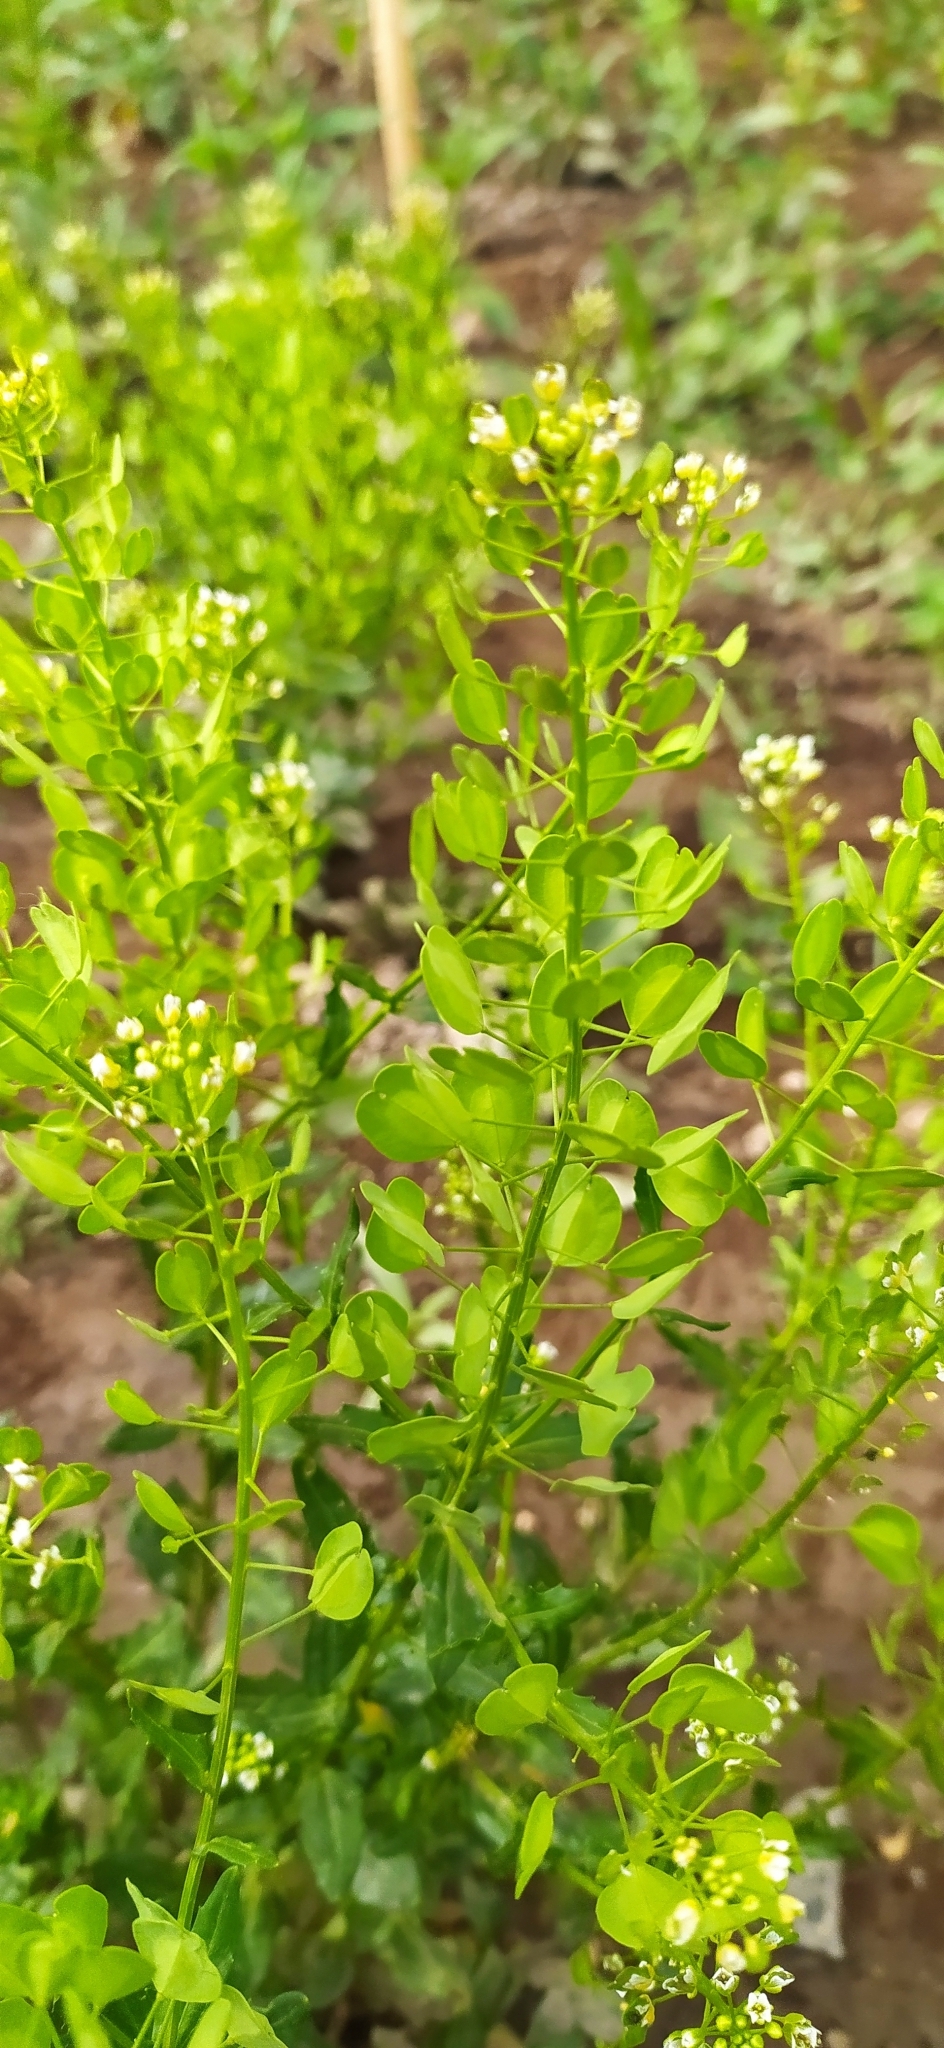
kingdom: Plantae
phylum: Tracheophyta
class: Magnoliopsida
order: Brassicales
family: Brassicaceae
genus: Thlaspi
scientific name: Thlaspi arvense
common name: Field pennycress
